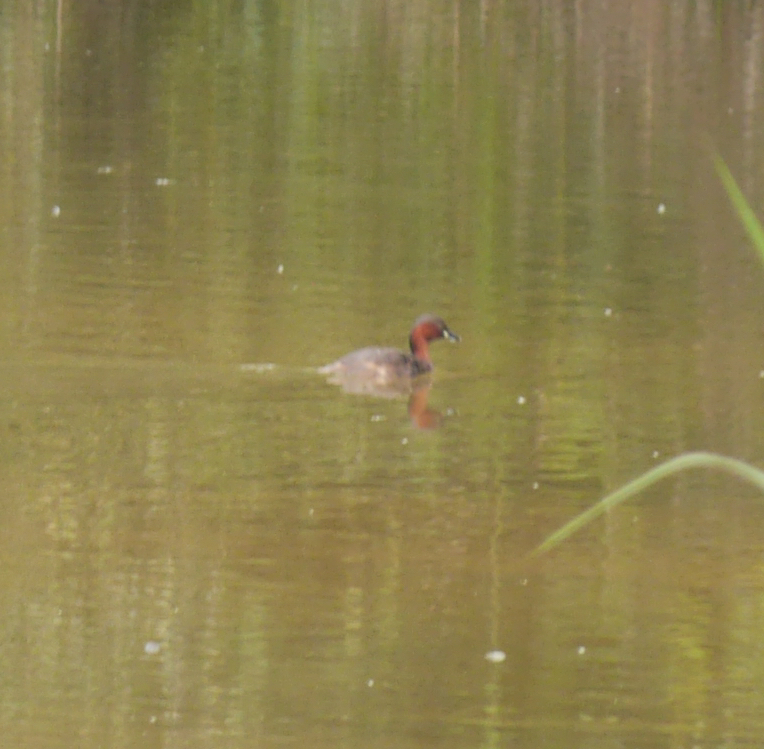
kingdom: Animalia
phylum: Chordata
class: Aves
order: Podicipediformes
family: Podicipedidae
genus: Tachybaptus
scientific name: Tachybaptus ruficollis
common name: Little grebe
